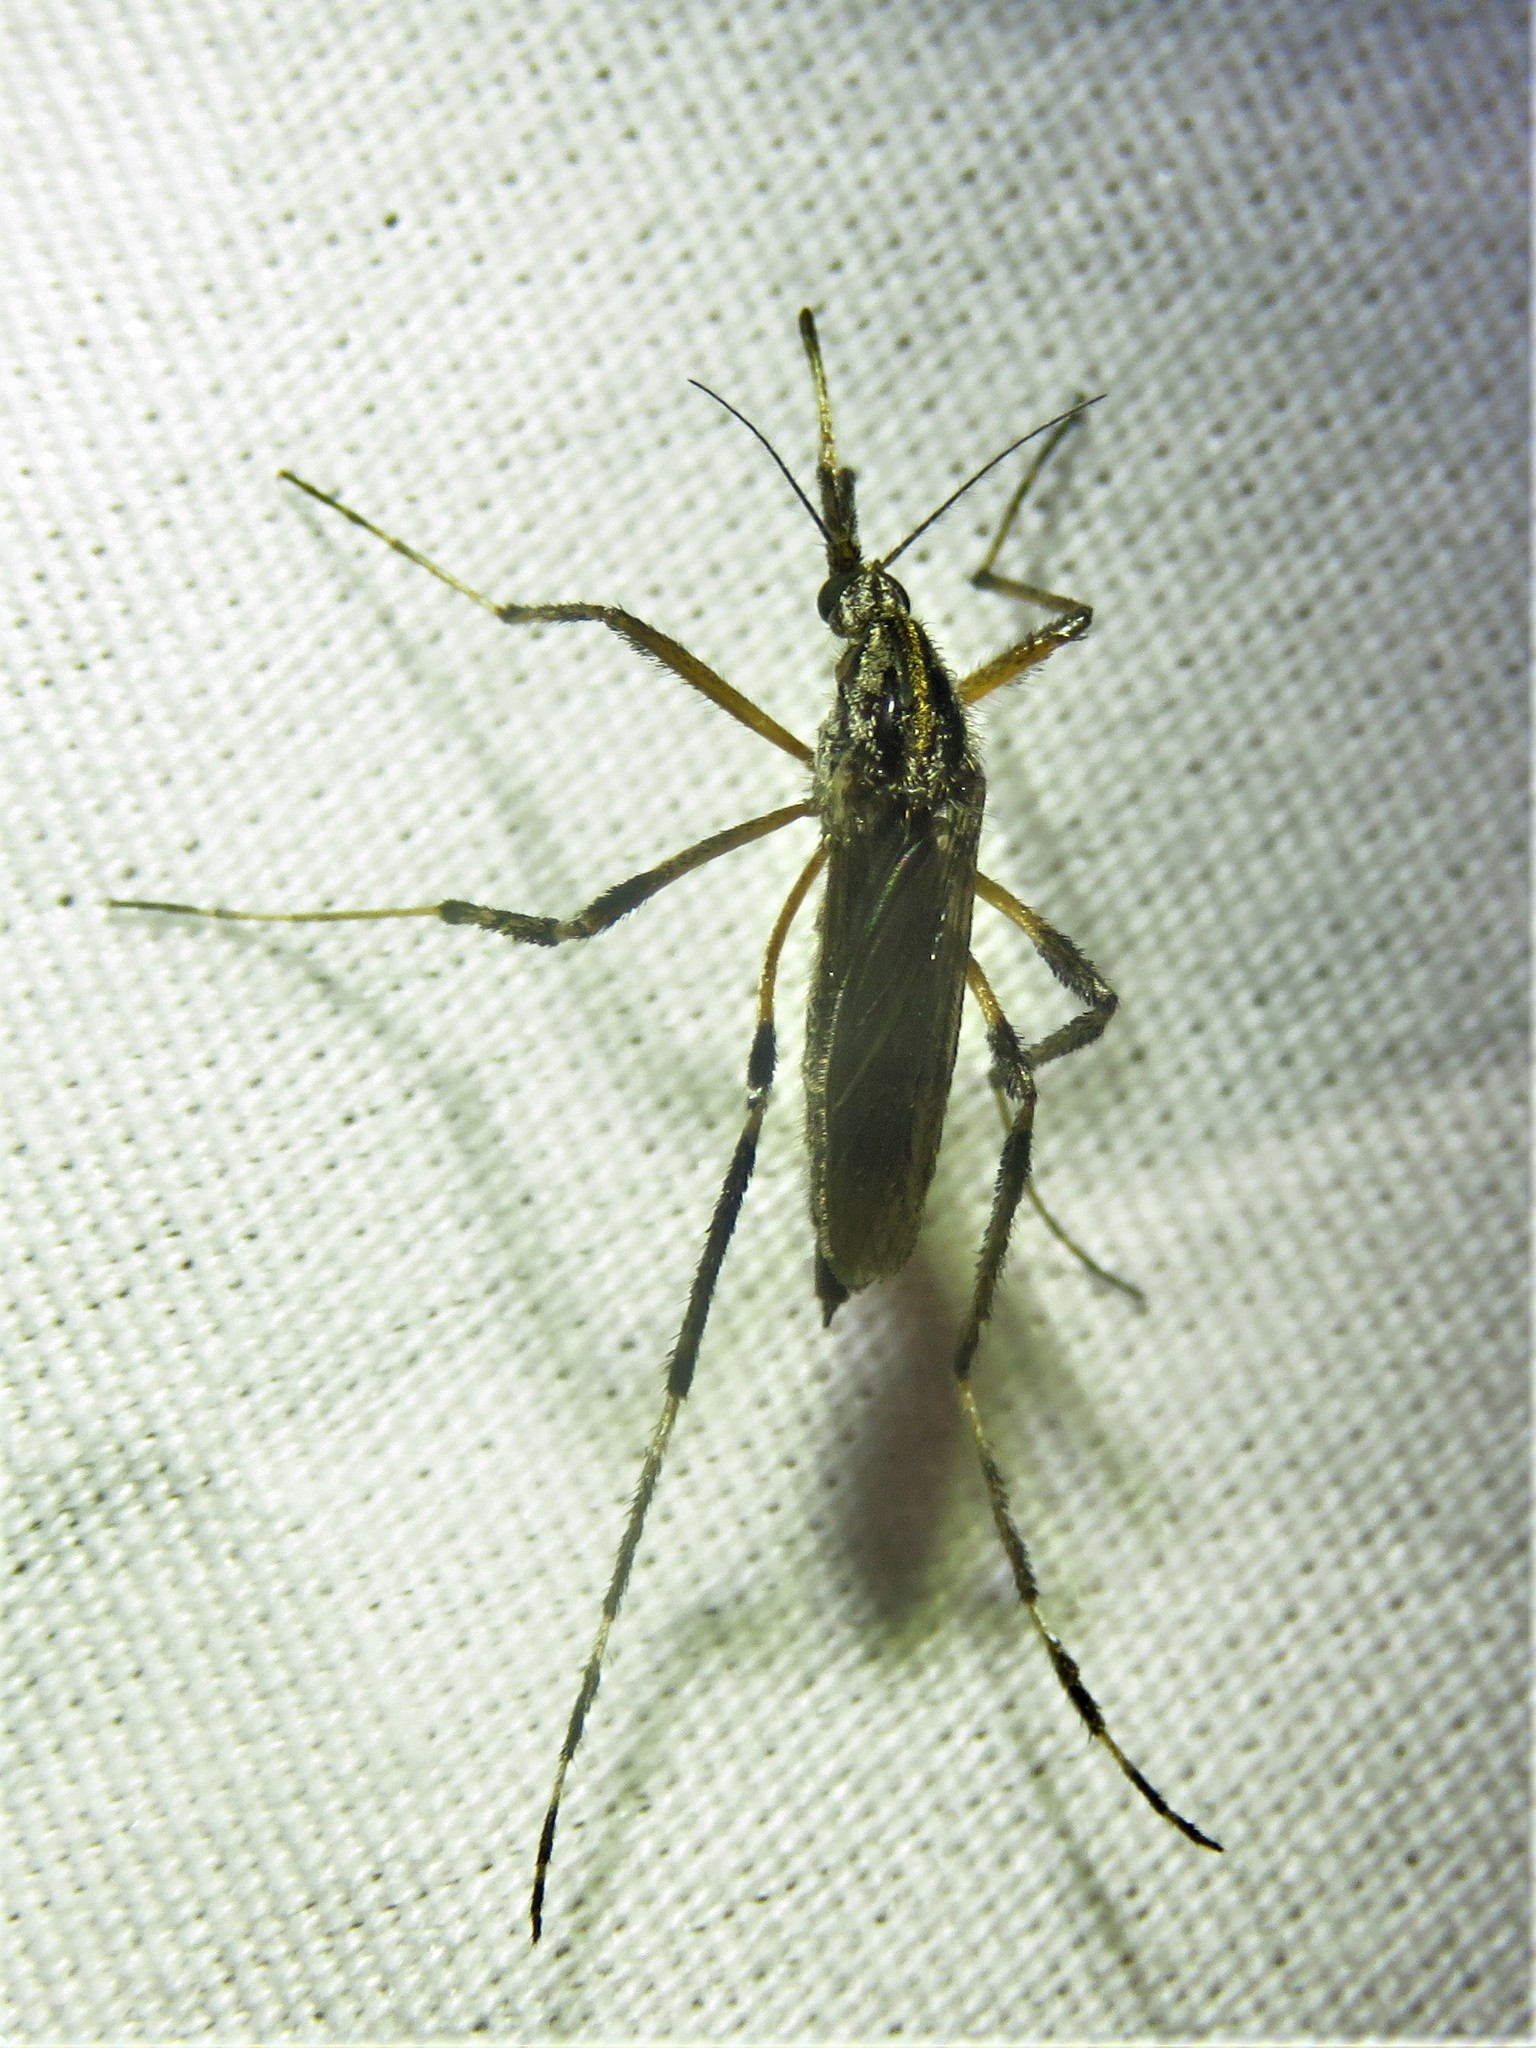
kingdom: Animalia
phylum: Arthropoda
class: Insecta
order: Diptera
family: Culicidae
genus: Psorophora
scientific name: Psorophora ciliata
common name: Gallinipper
